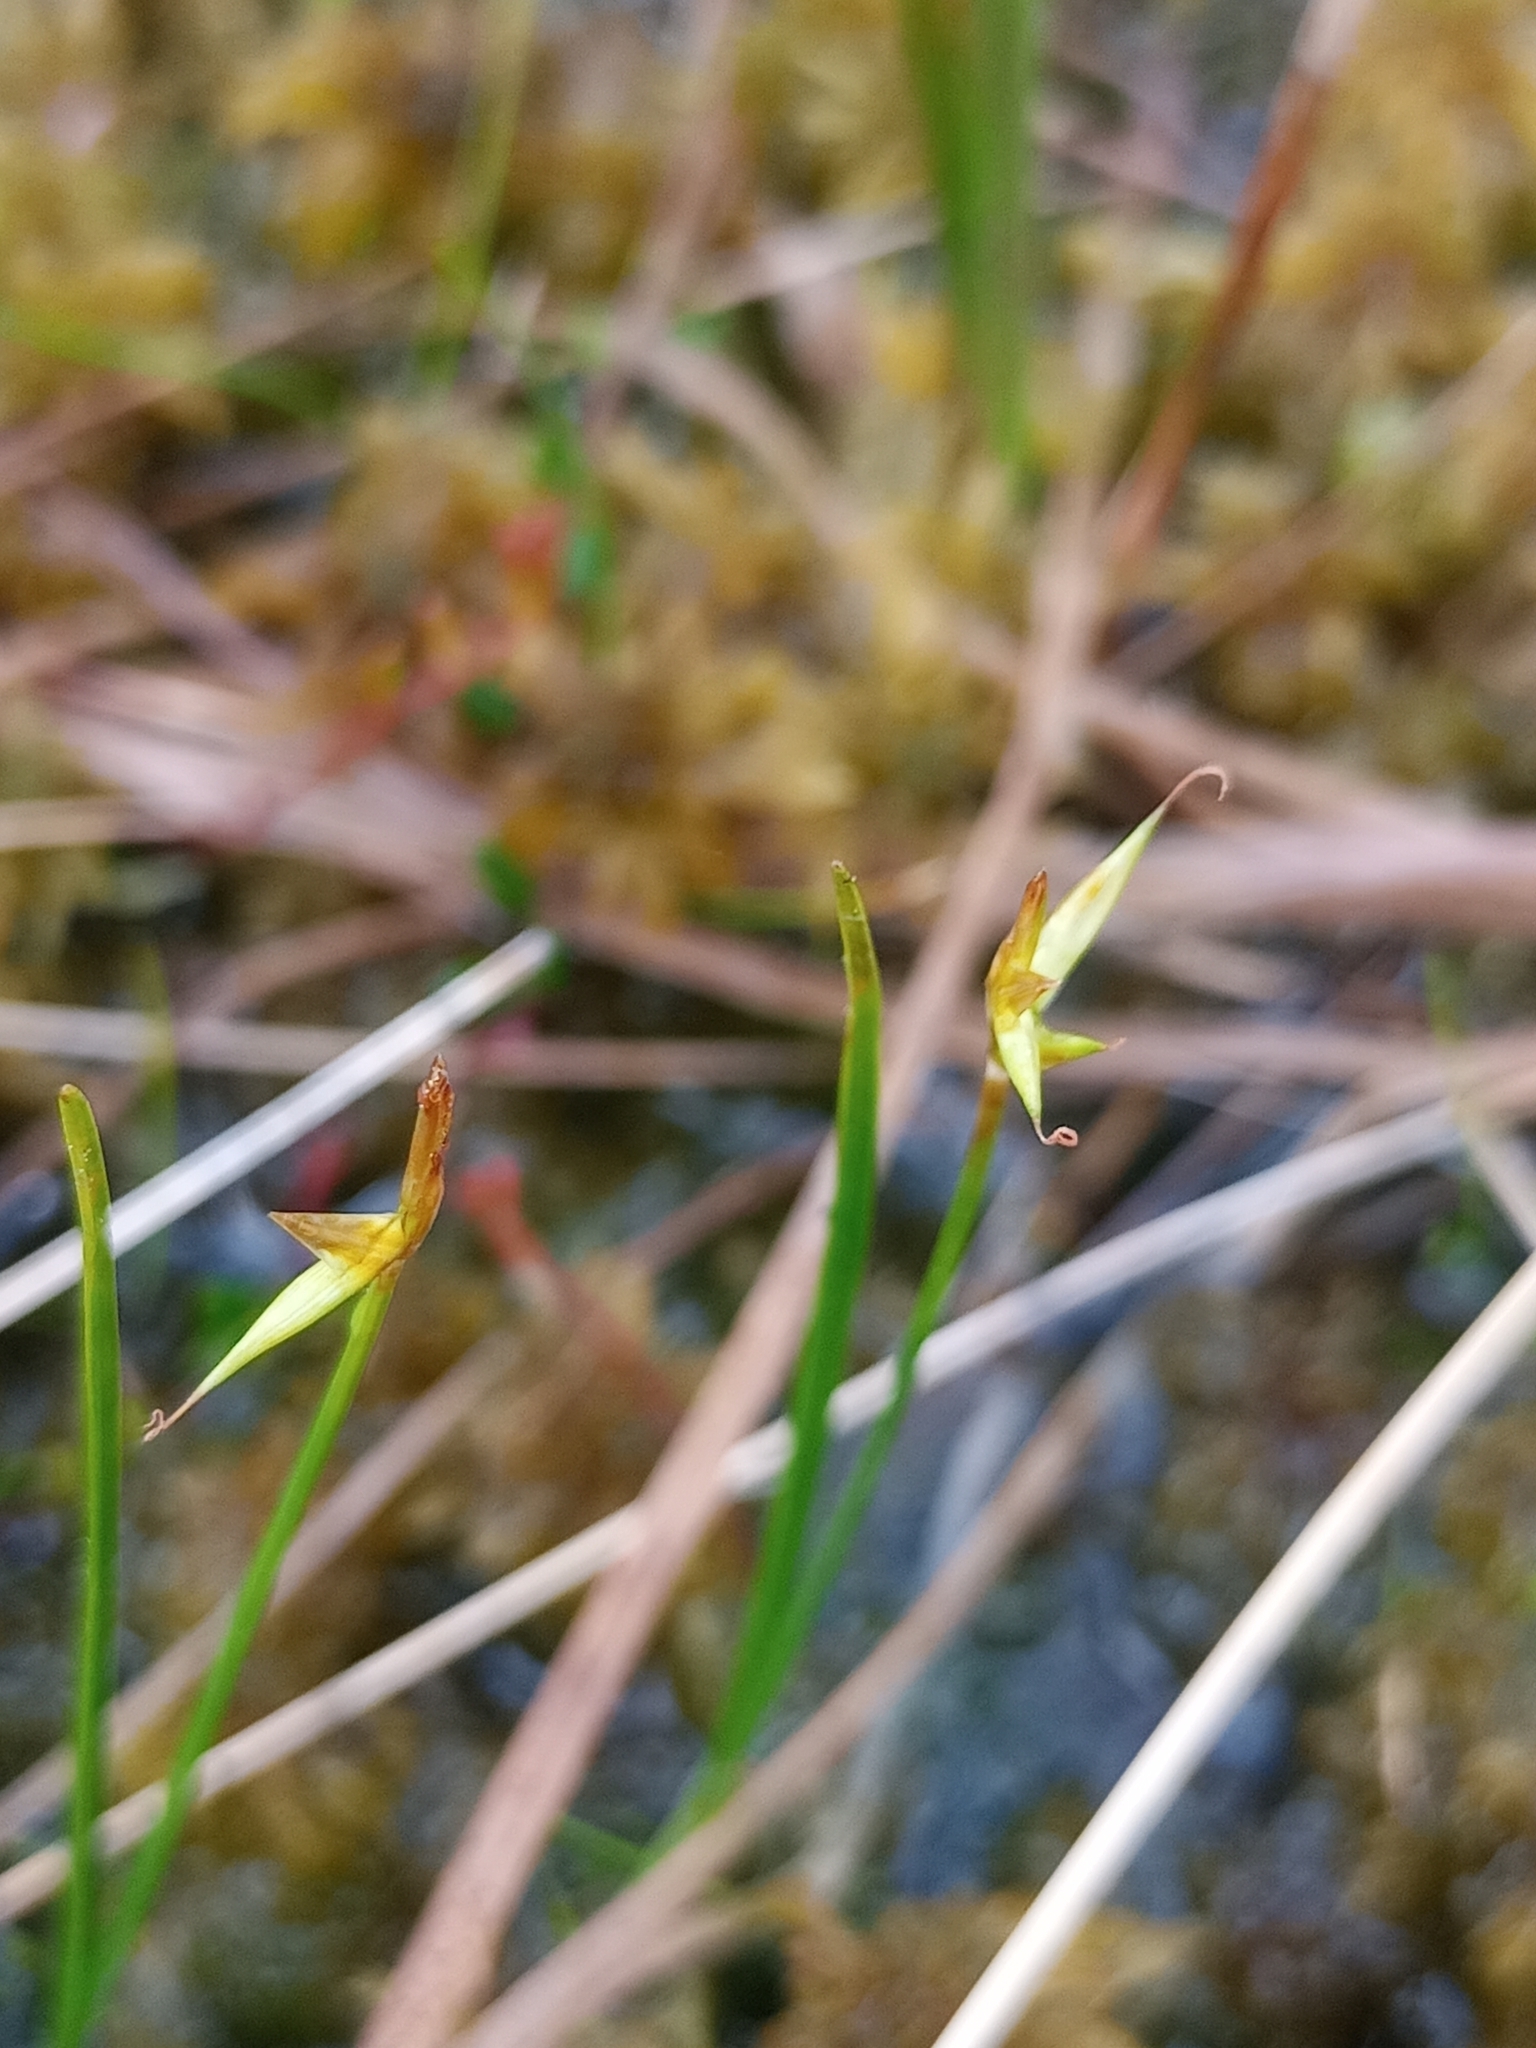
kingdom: Plantae
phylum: Tracheophyta
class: Liliopsida
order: Poales
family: Cyperaceae
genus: Carex
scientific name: Carex pauciflora
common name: Few-flowered sedge
